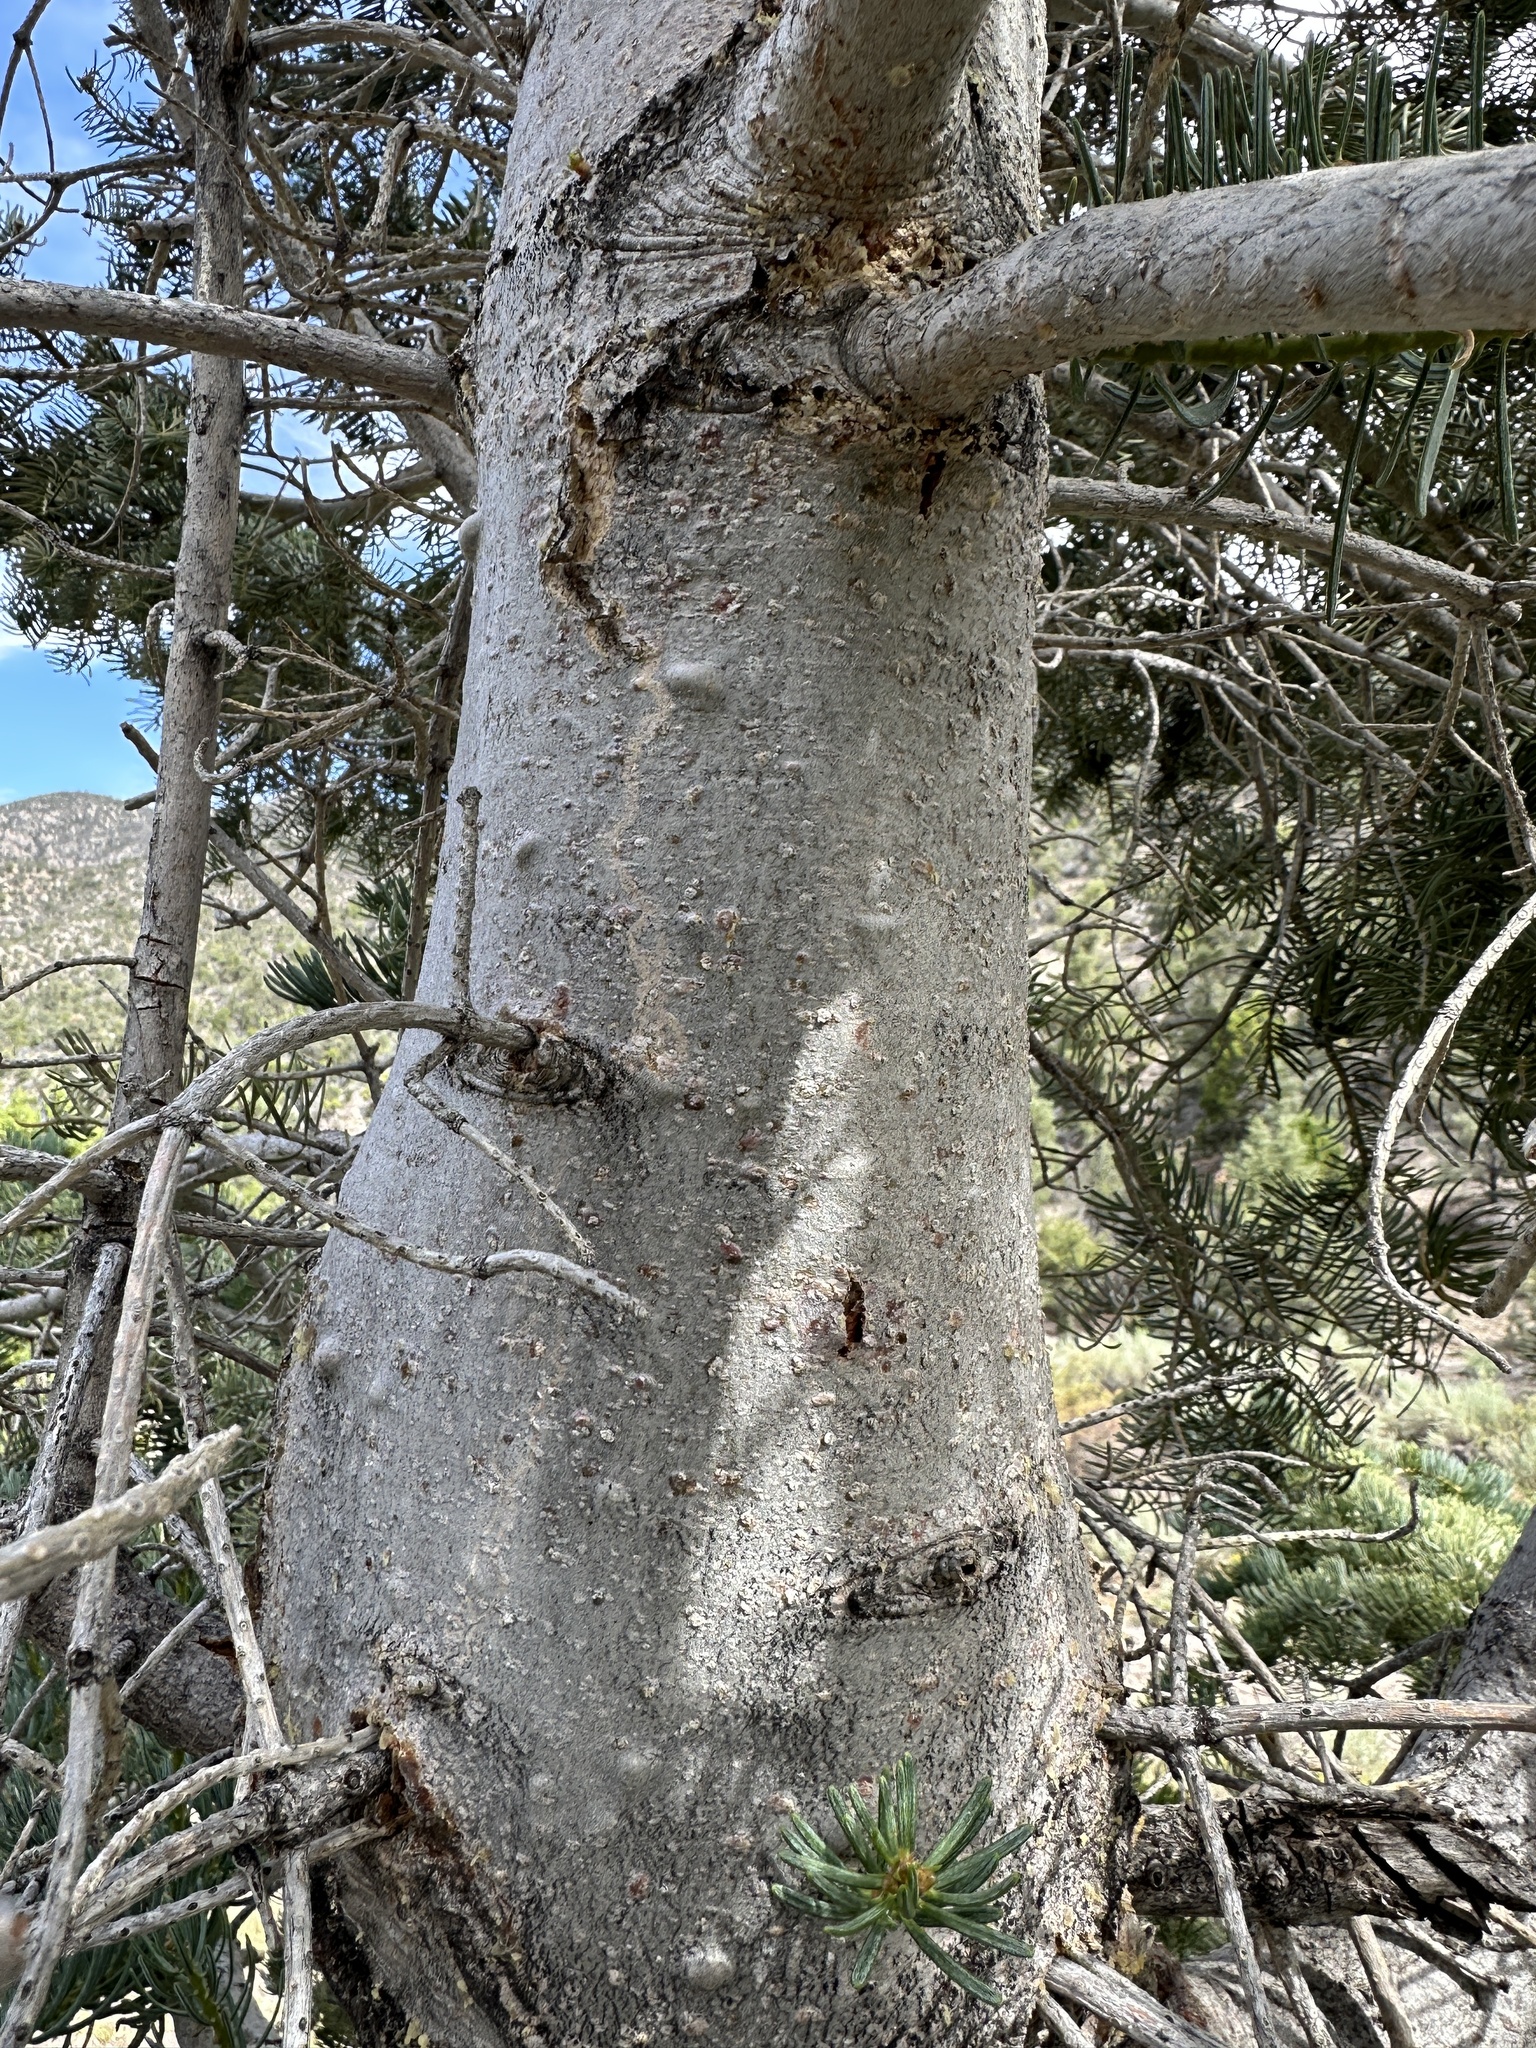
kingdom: Plantae
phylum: Tracheophyta
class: Pinopsida
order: Pinales
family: Pinaceae
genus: Abies
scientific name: Abies concolor
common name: Colorado fir
